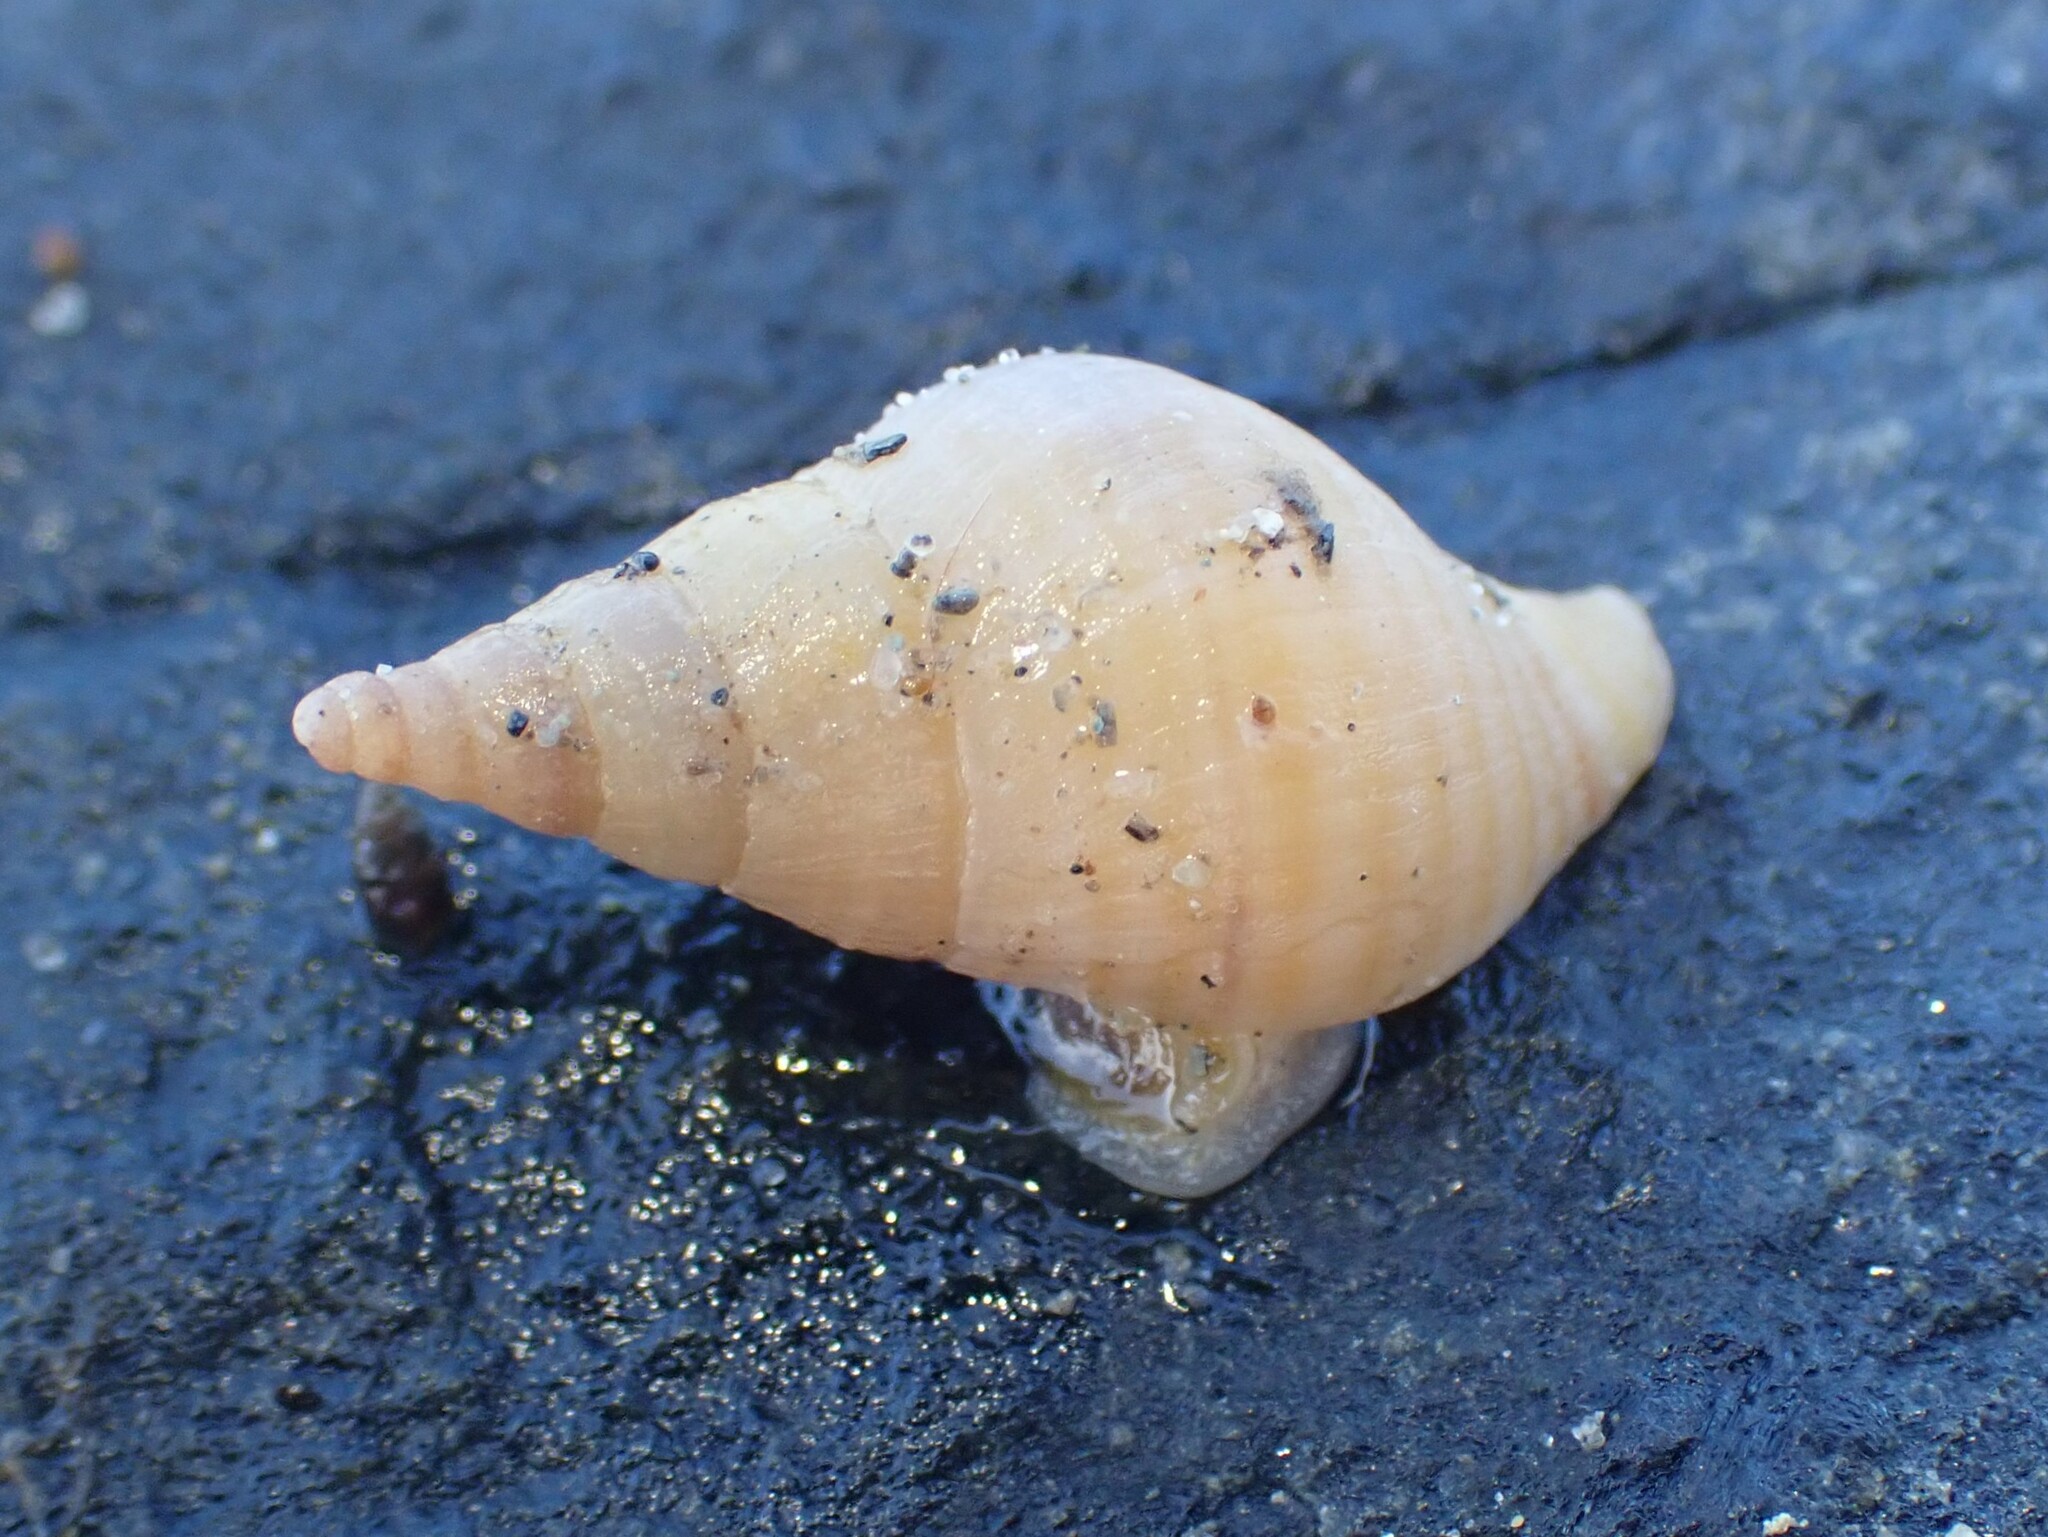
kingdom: Animalia
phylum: Mollusca
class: Gastropoda
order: Neogastropoda
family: Tudiclidae
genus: Buccinulum
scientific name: Buccinulum littorinoides
